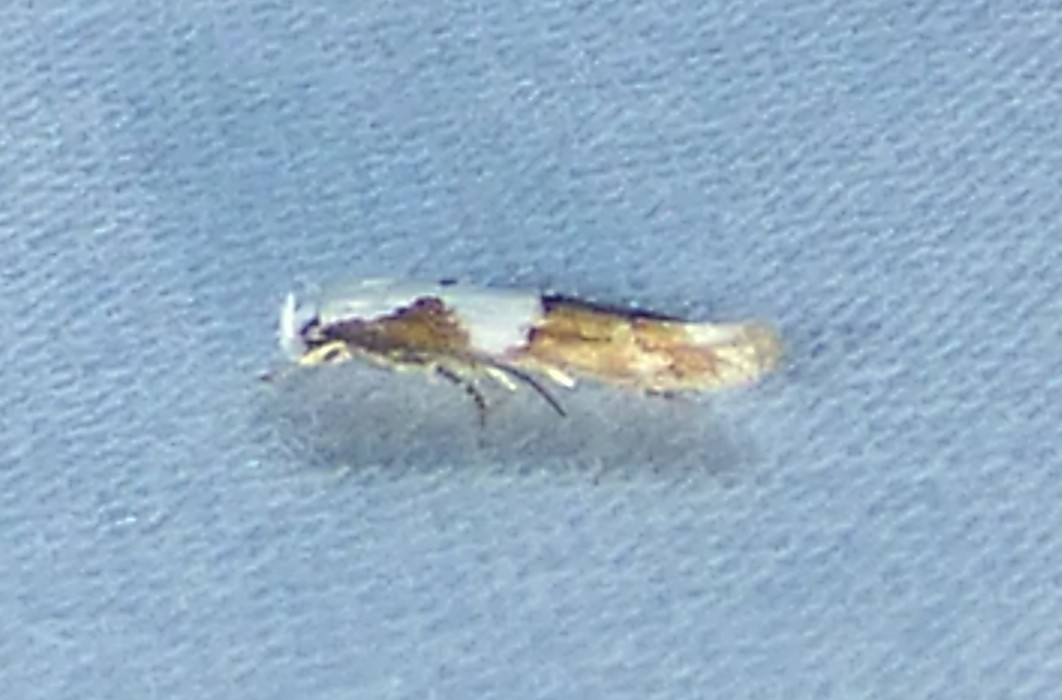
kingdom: Animalia
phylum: Arthropoda
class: Insecta
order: Lepidoptera
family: Momphidae
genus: Mompha
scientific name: Mompha circumscriptella
